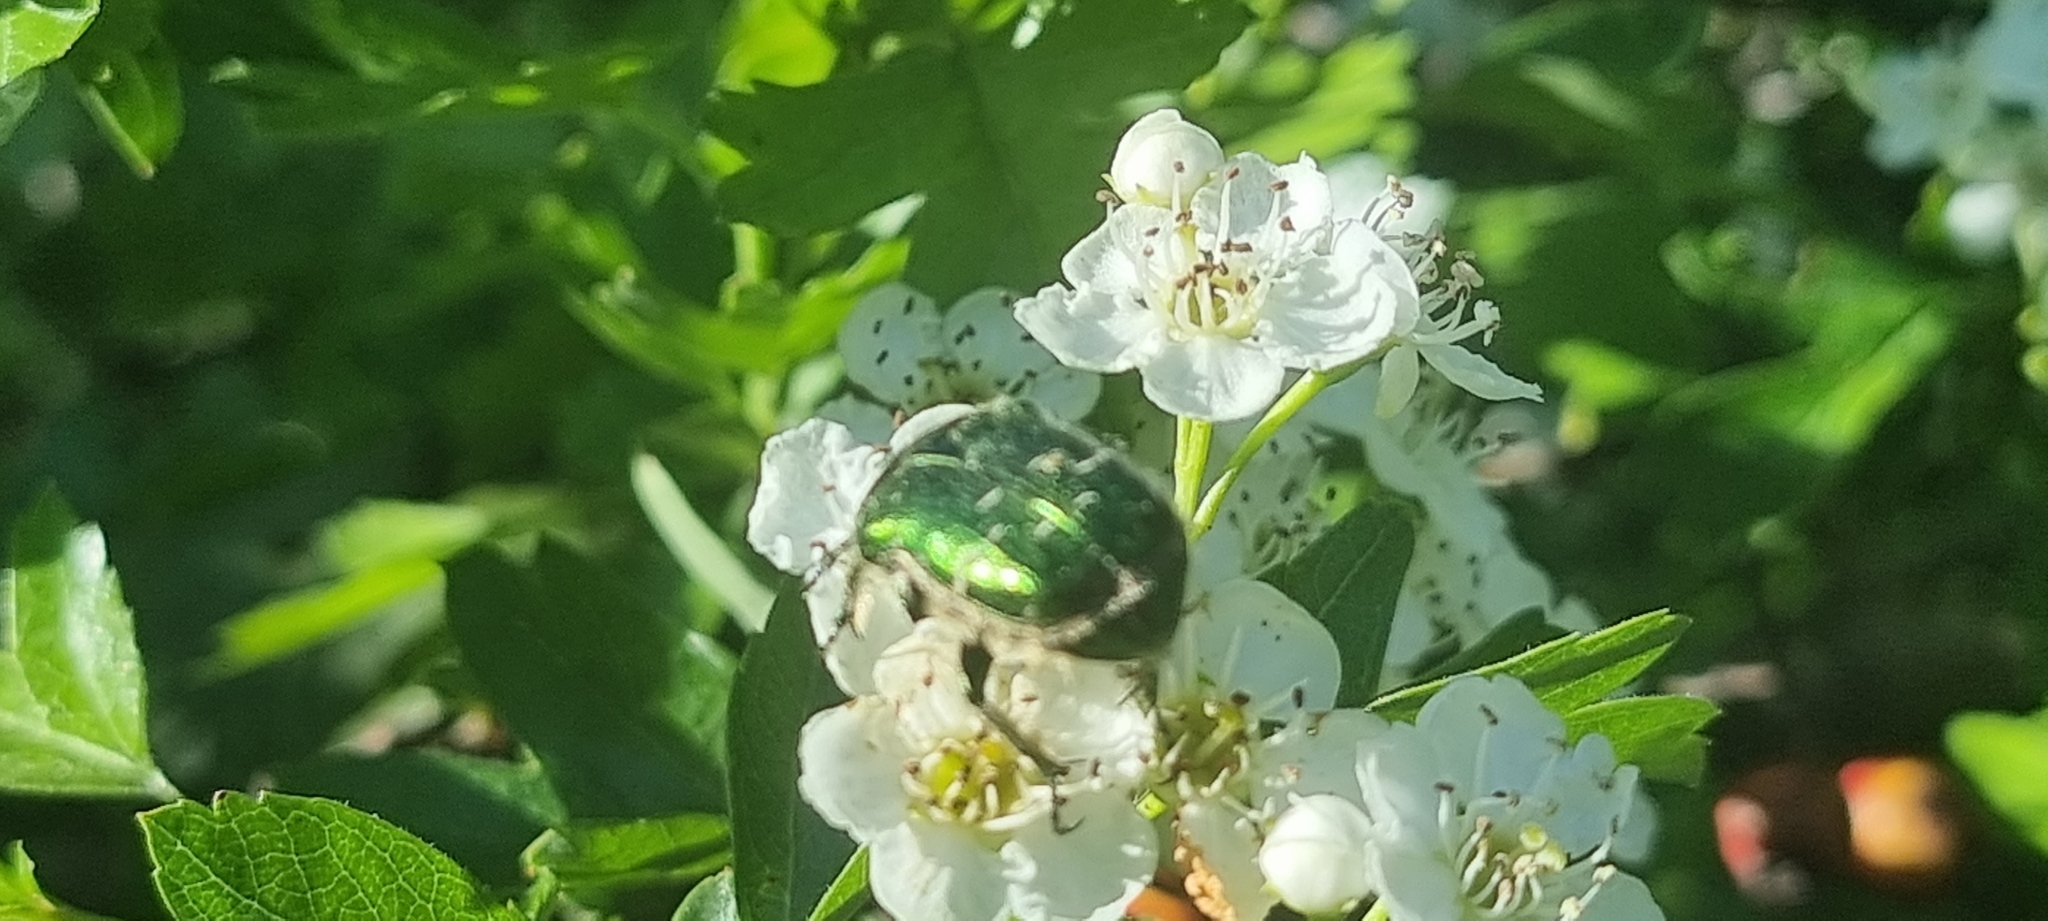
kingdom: Animalia
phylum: Arthropoda
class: Insecta
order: Coleoptera
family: Scarabaeidae
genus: Cetonia
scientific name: Cetonia aurata
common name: Rose chafer
